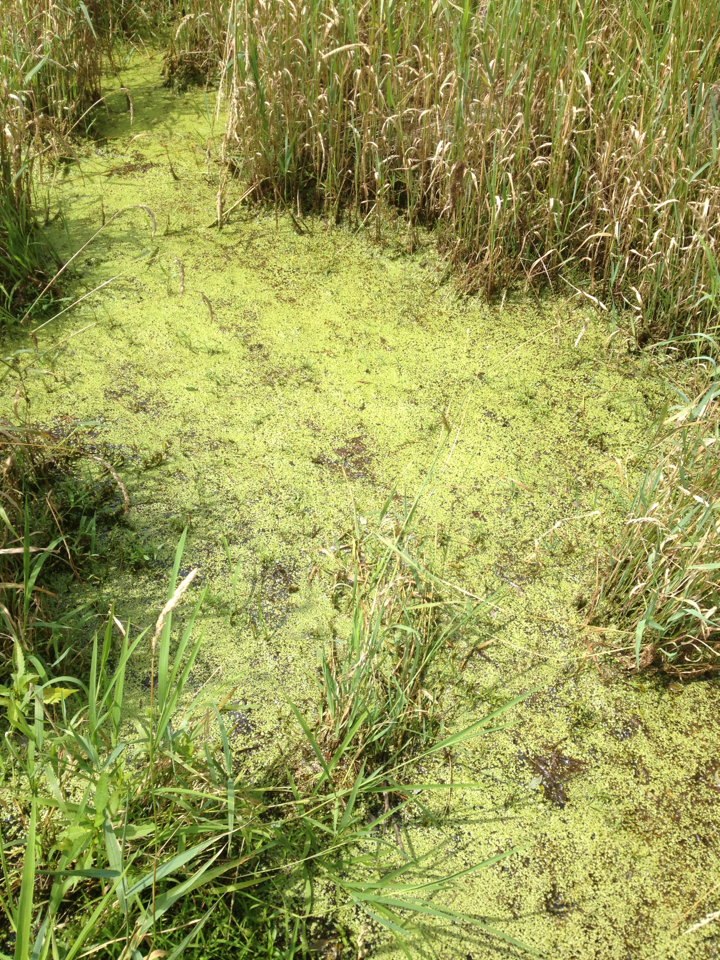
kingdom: Plantae
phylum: Tracheophyta
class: Liliopsida
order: Alismatales
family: Araceae
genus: Lemna
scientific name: Lemna
